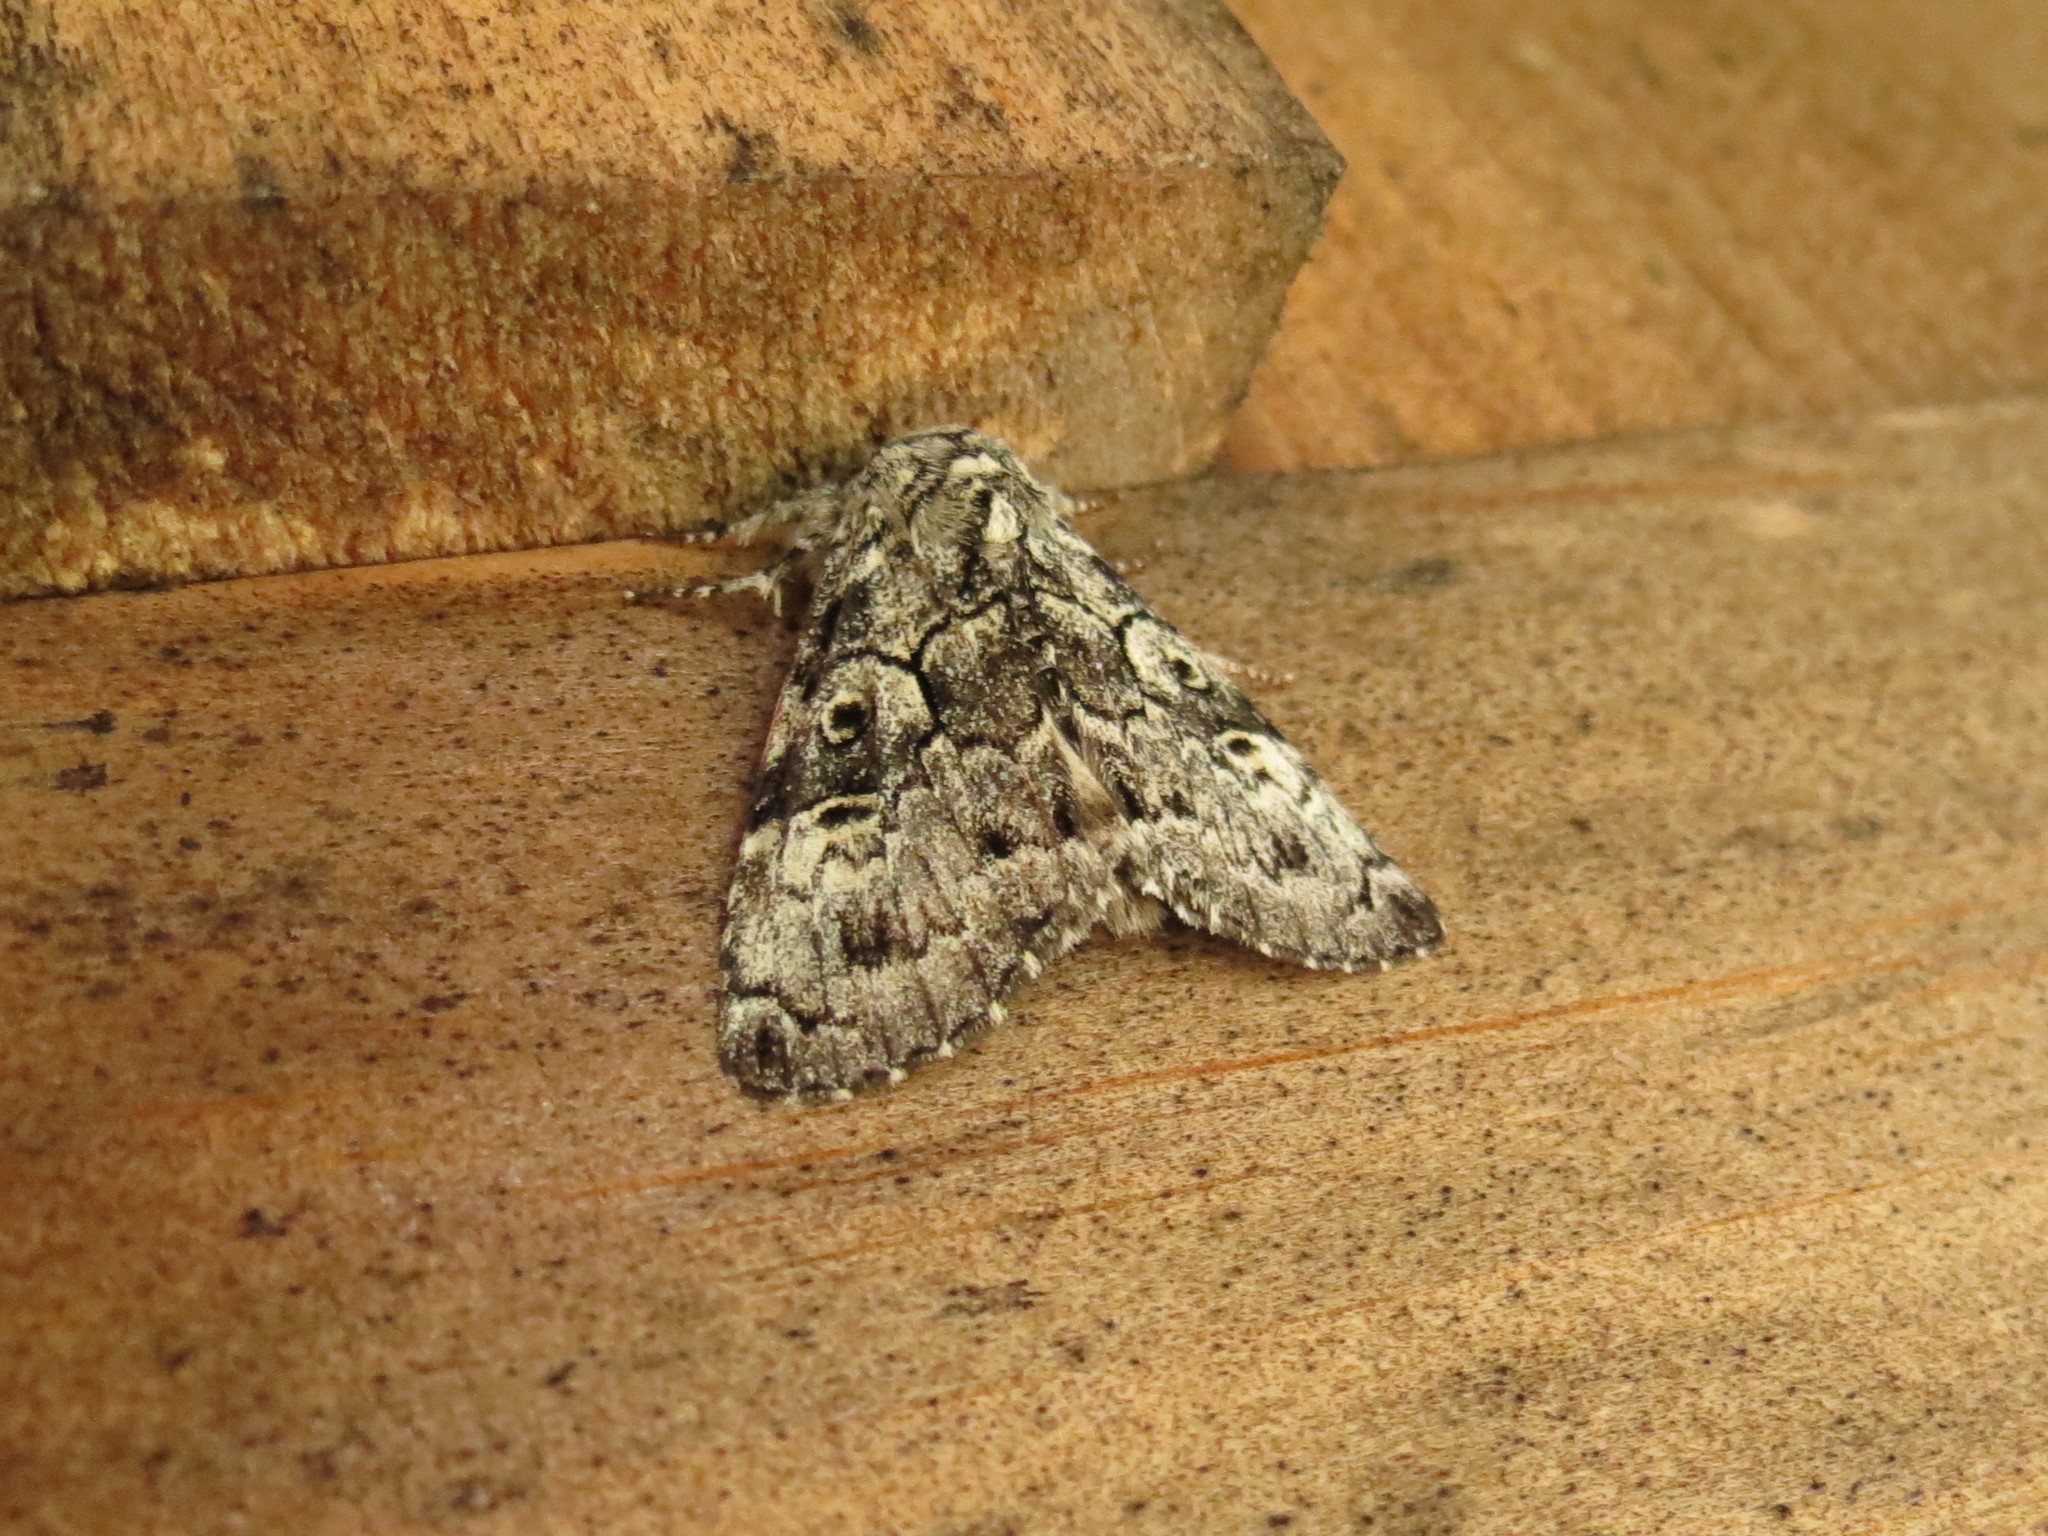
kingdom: Animalia
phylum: Arthropoda
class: Insecta
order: Lepidoptera
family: Noctuidae
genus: Charadra
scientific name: Charadra deridens
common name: Marbled tuffet
